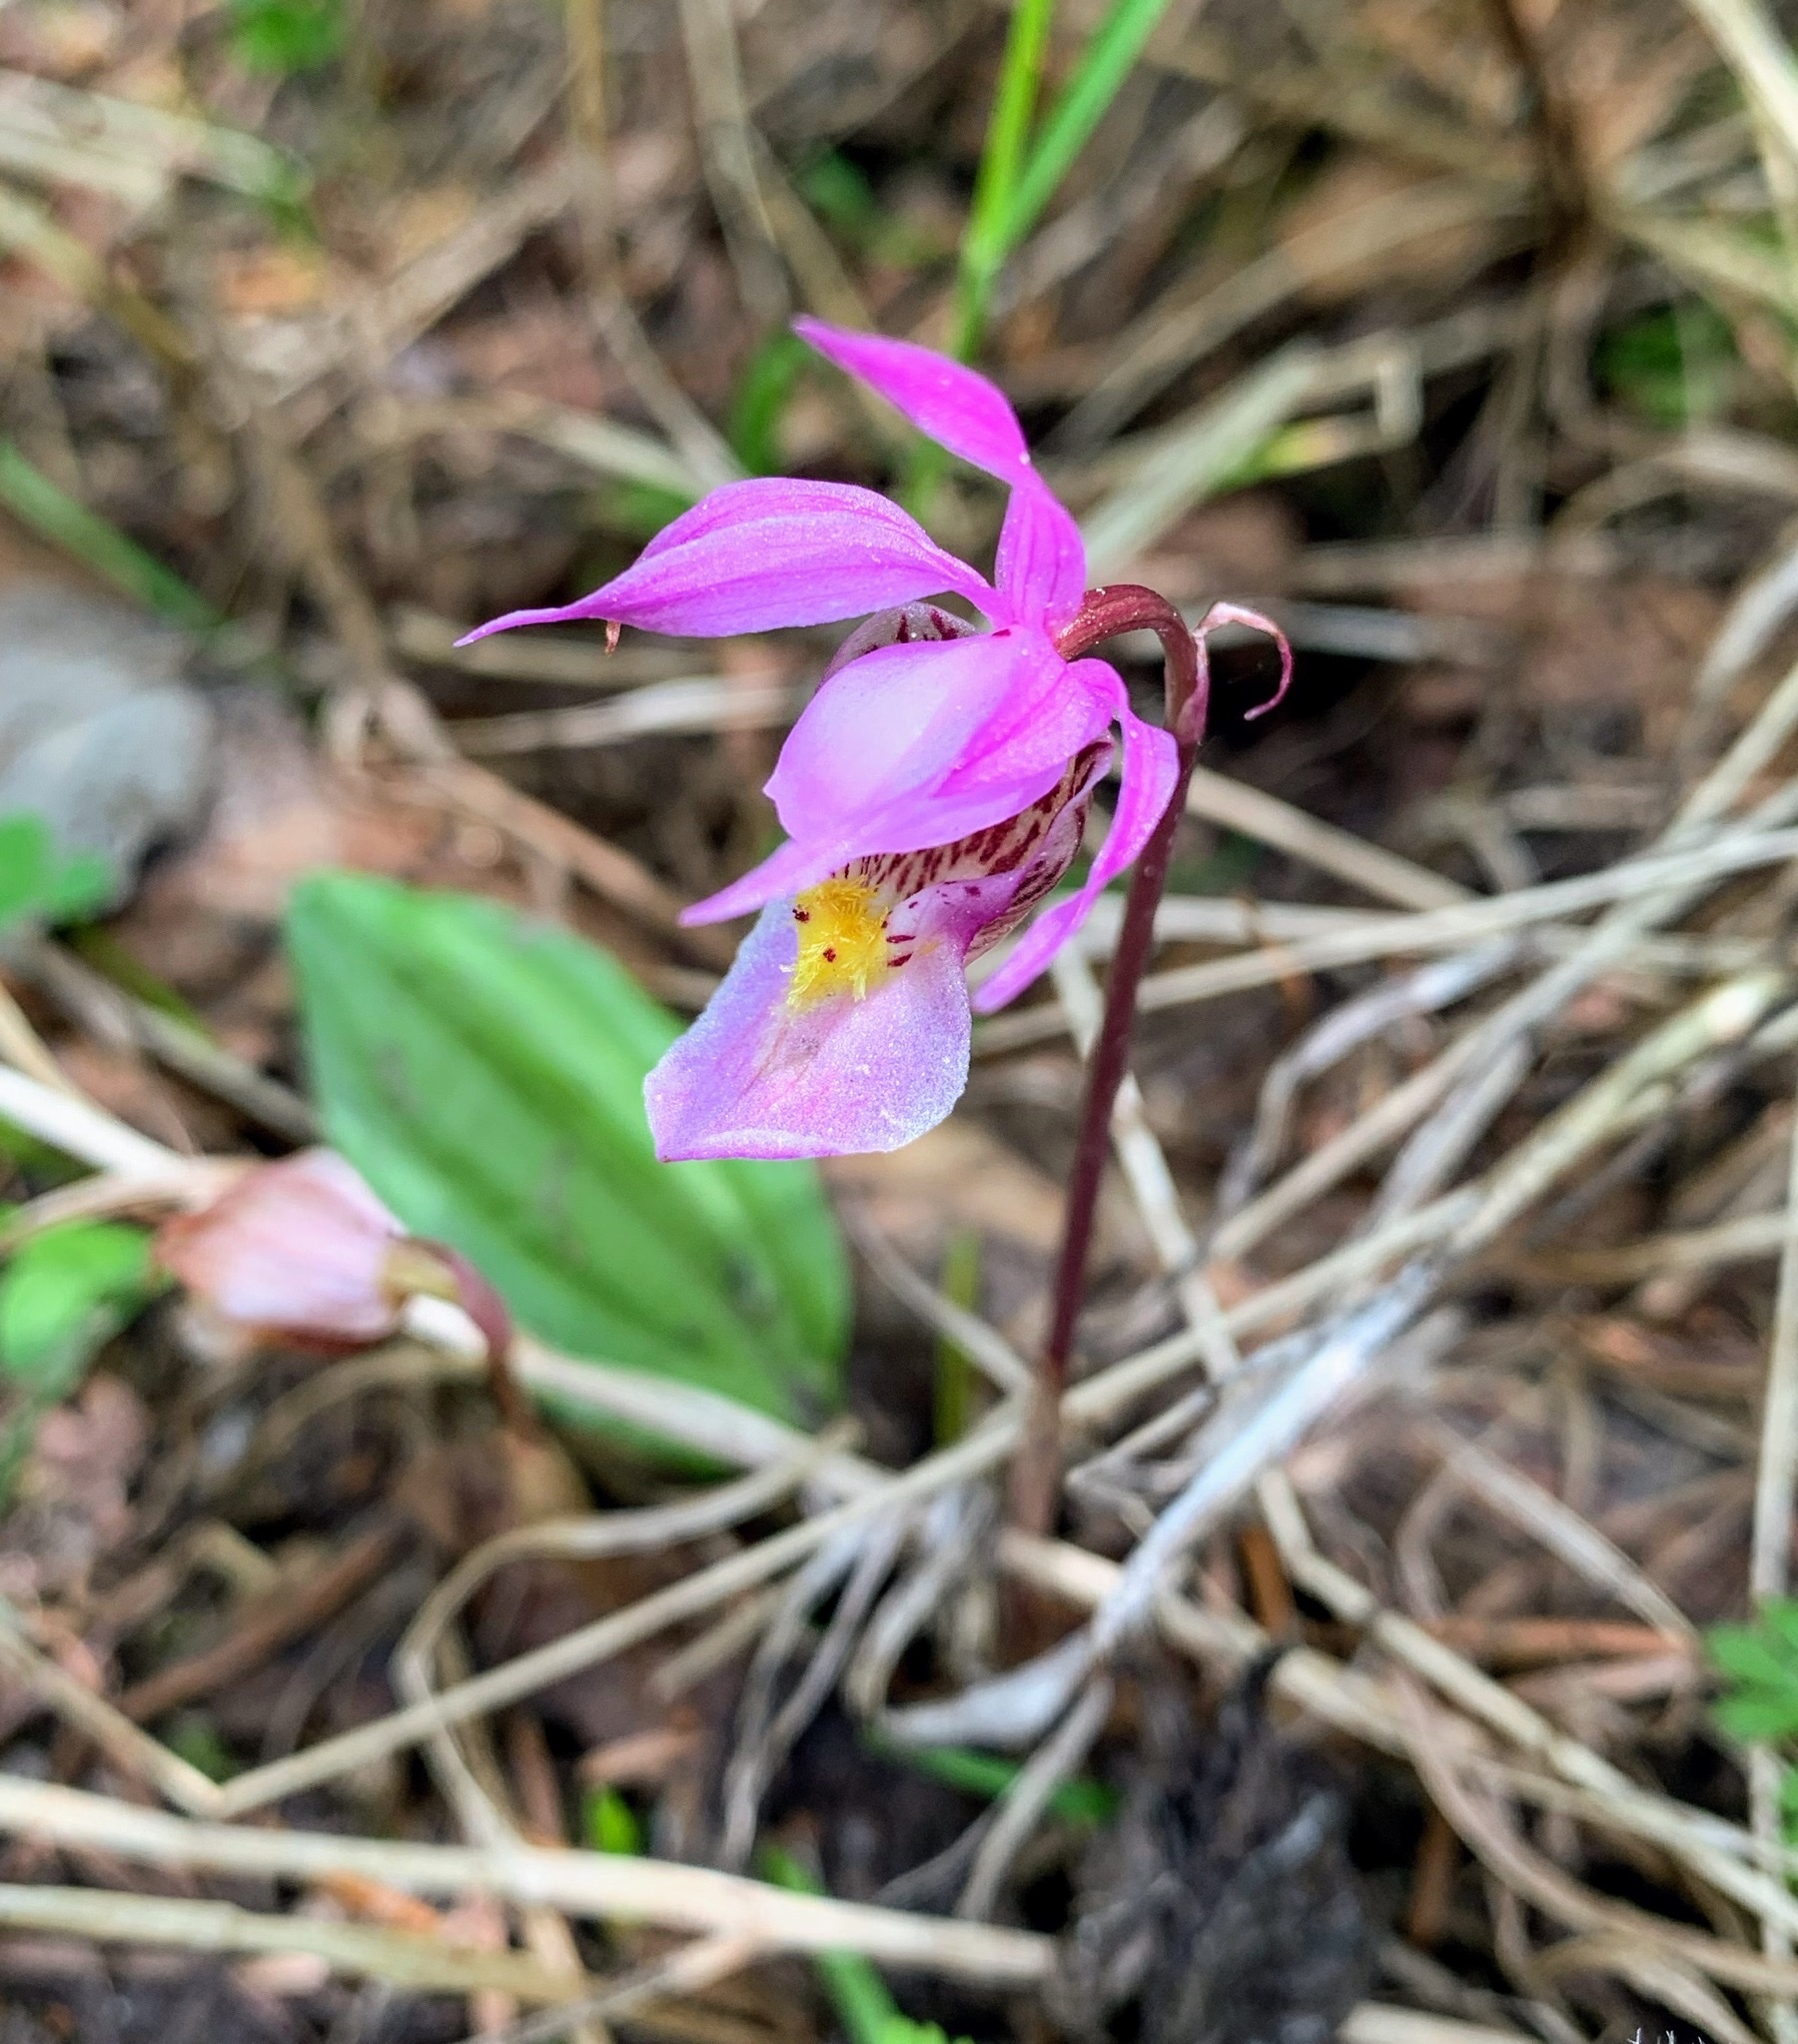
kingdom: Plantae
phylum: Tracheophyta
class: Liliopsida
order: Asparagales
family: Orchidaceae
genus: Calypso
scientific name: Calypso bulbosa
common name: Calypso
